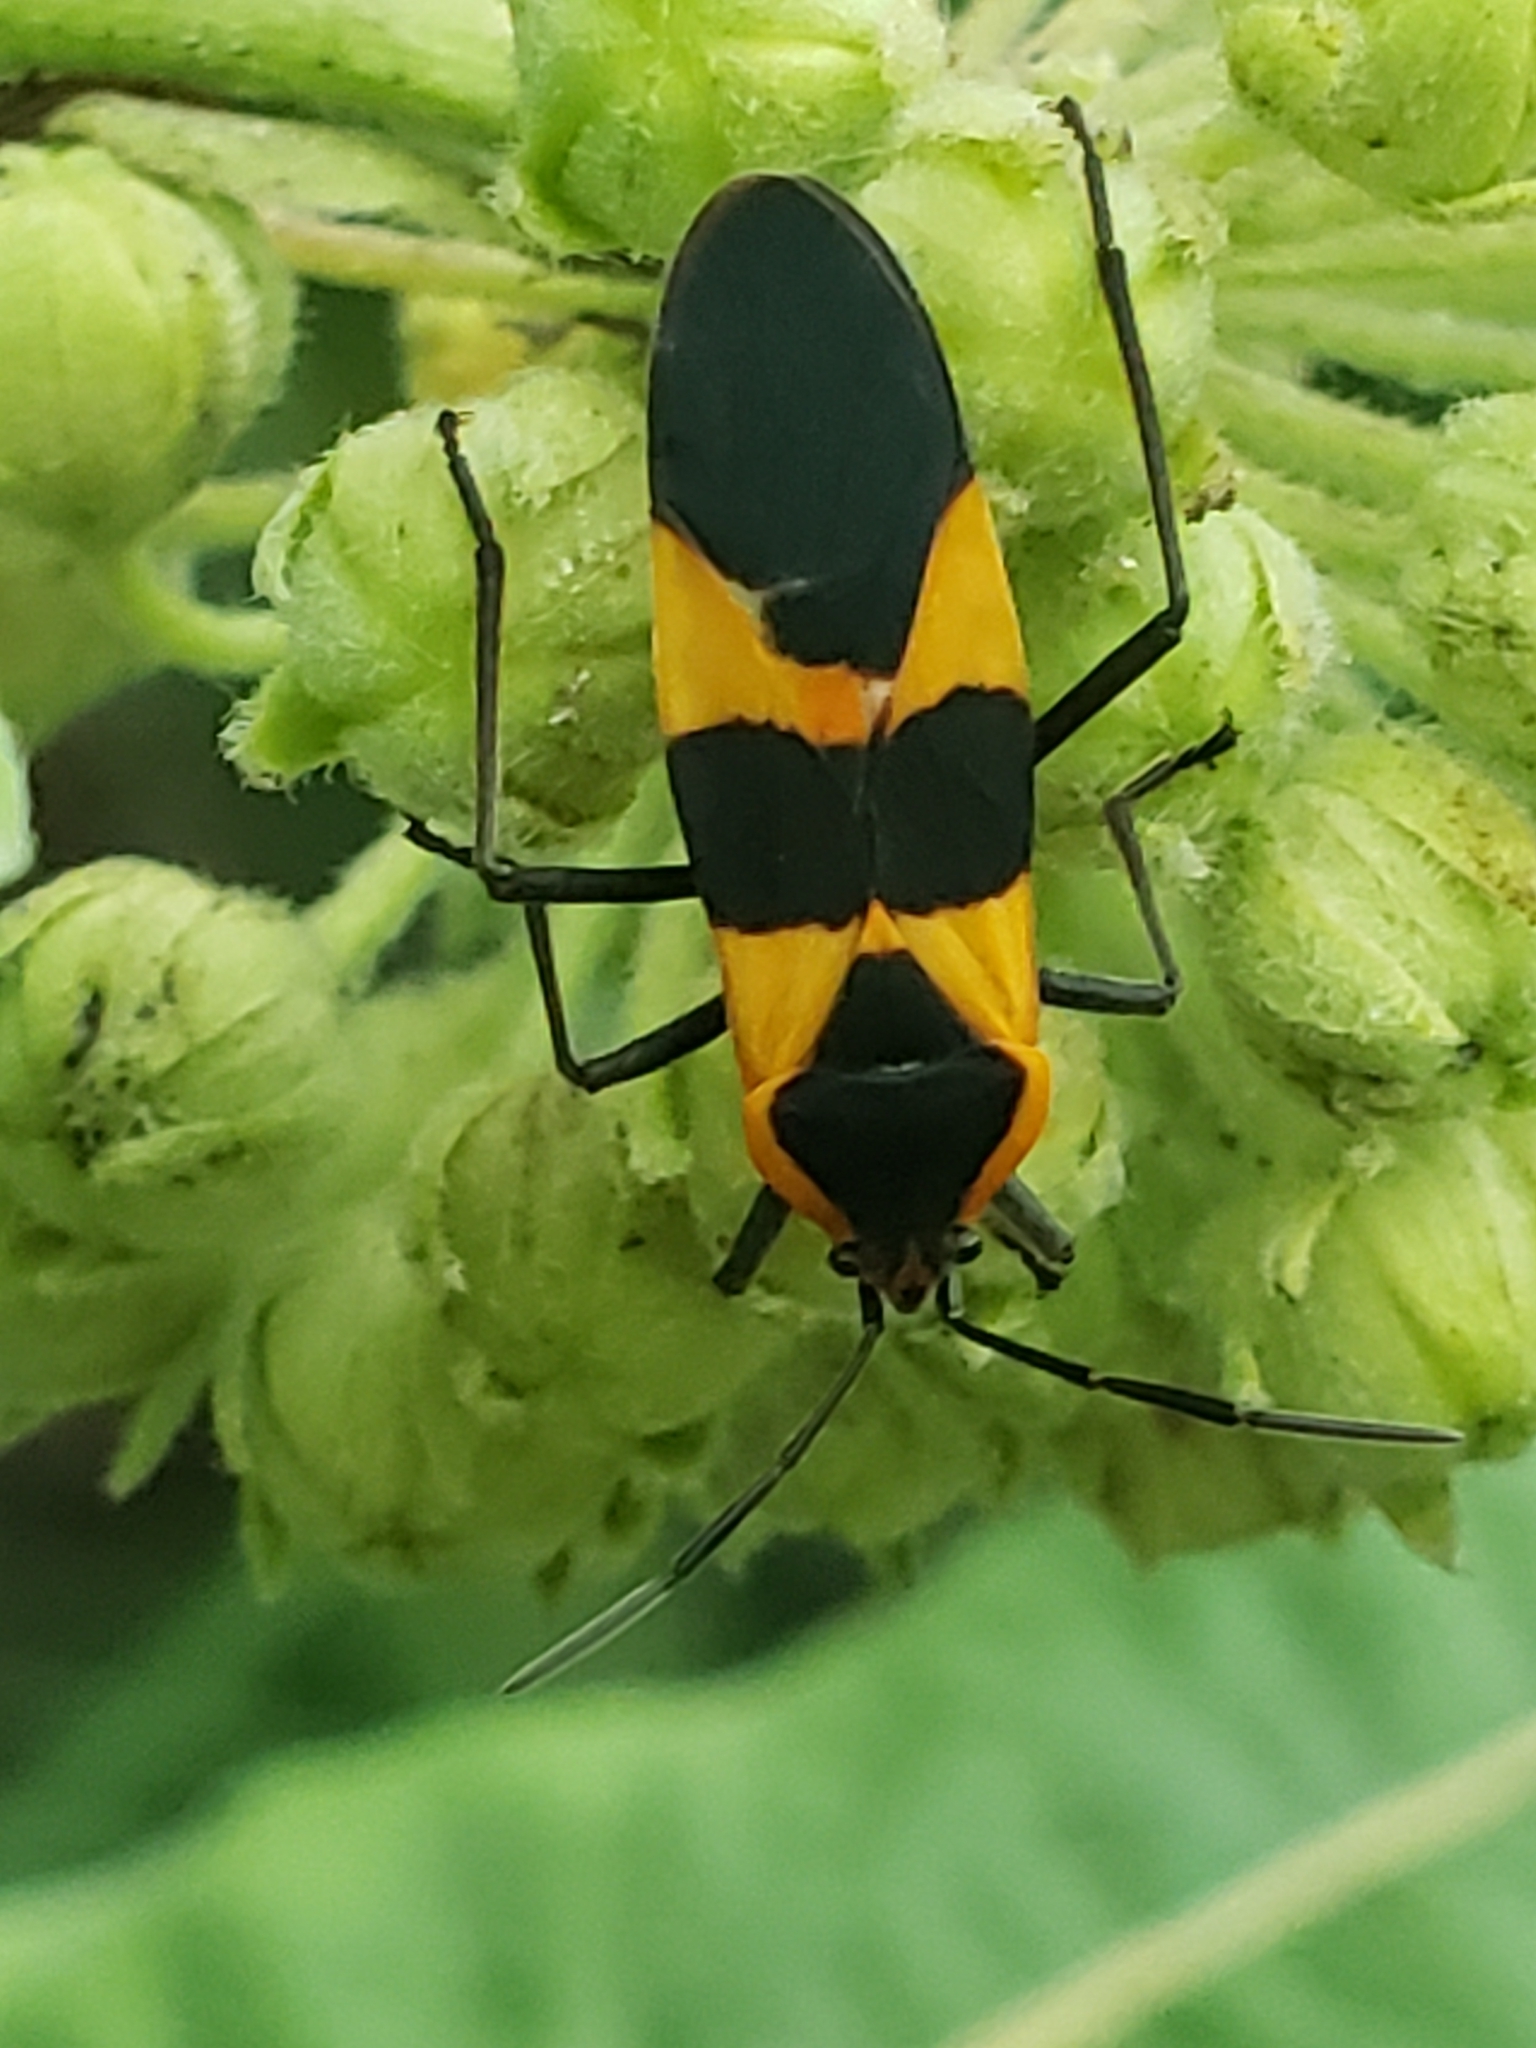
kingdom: Animalia
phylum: Arthropoda
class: Insecta
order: Hemiptera
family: Lygaeidae
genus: Oncopeltus
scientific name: Oncopeltus fasciatus
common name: Large milkweed bug
